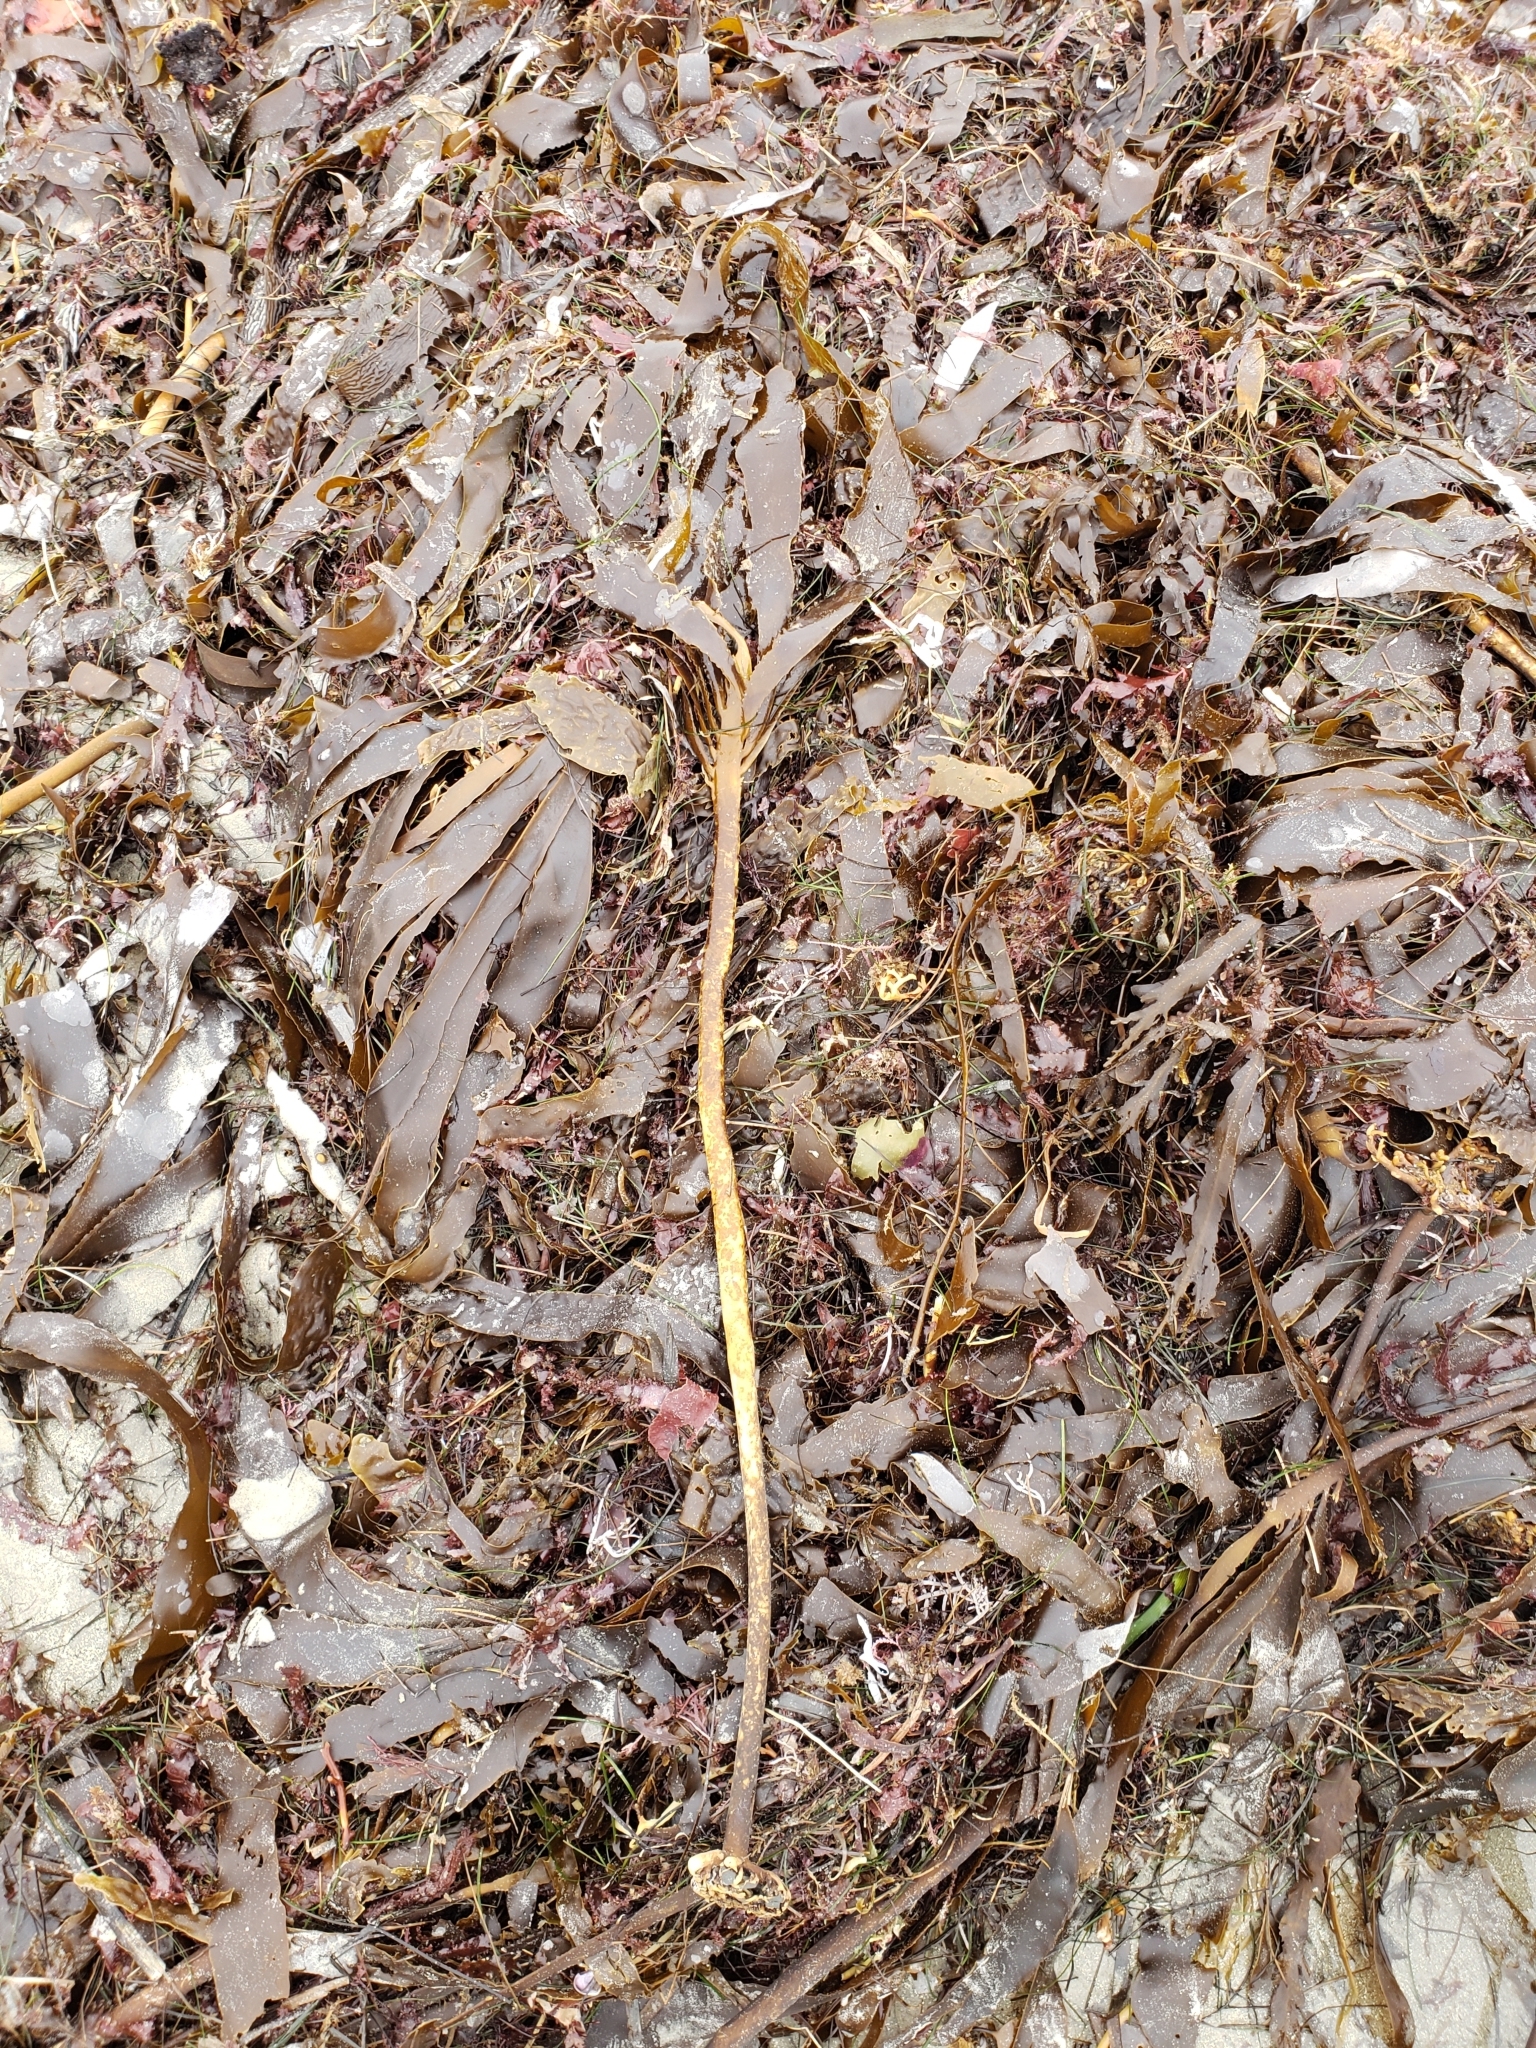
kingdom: Chromista
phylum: Ochrophyta
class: Phaeophyceae
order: Laminariales
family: Alariaceae
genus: Pterygophora
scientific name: Pterygophora californica
